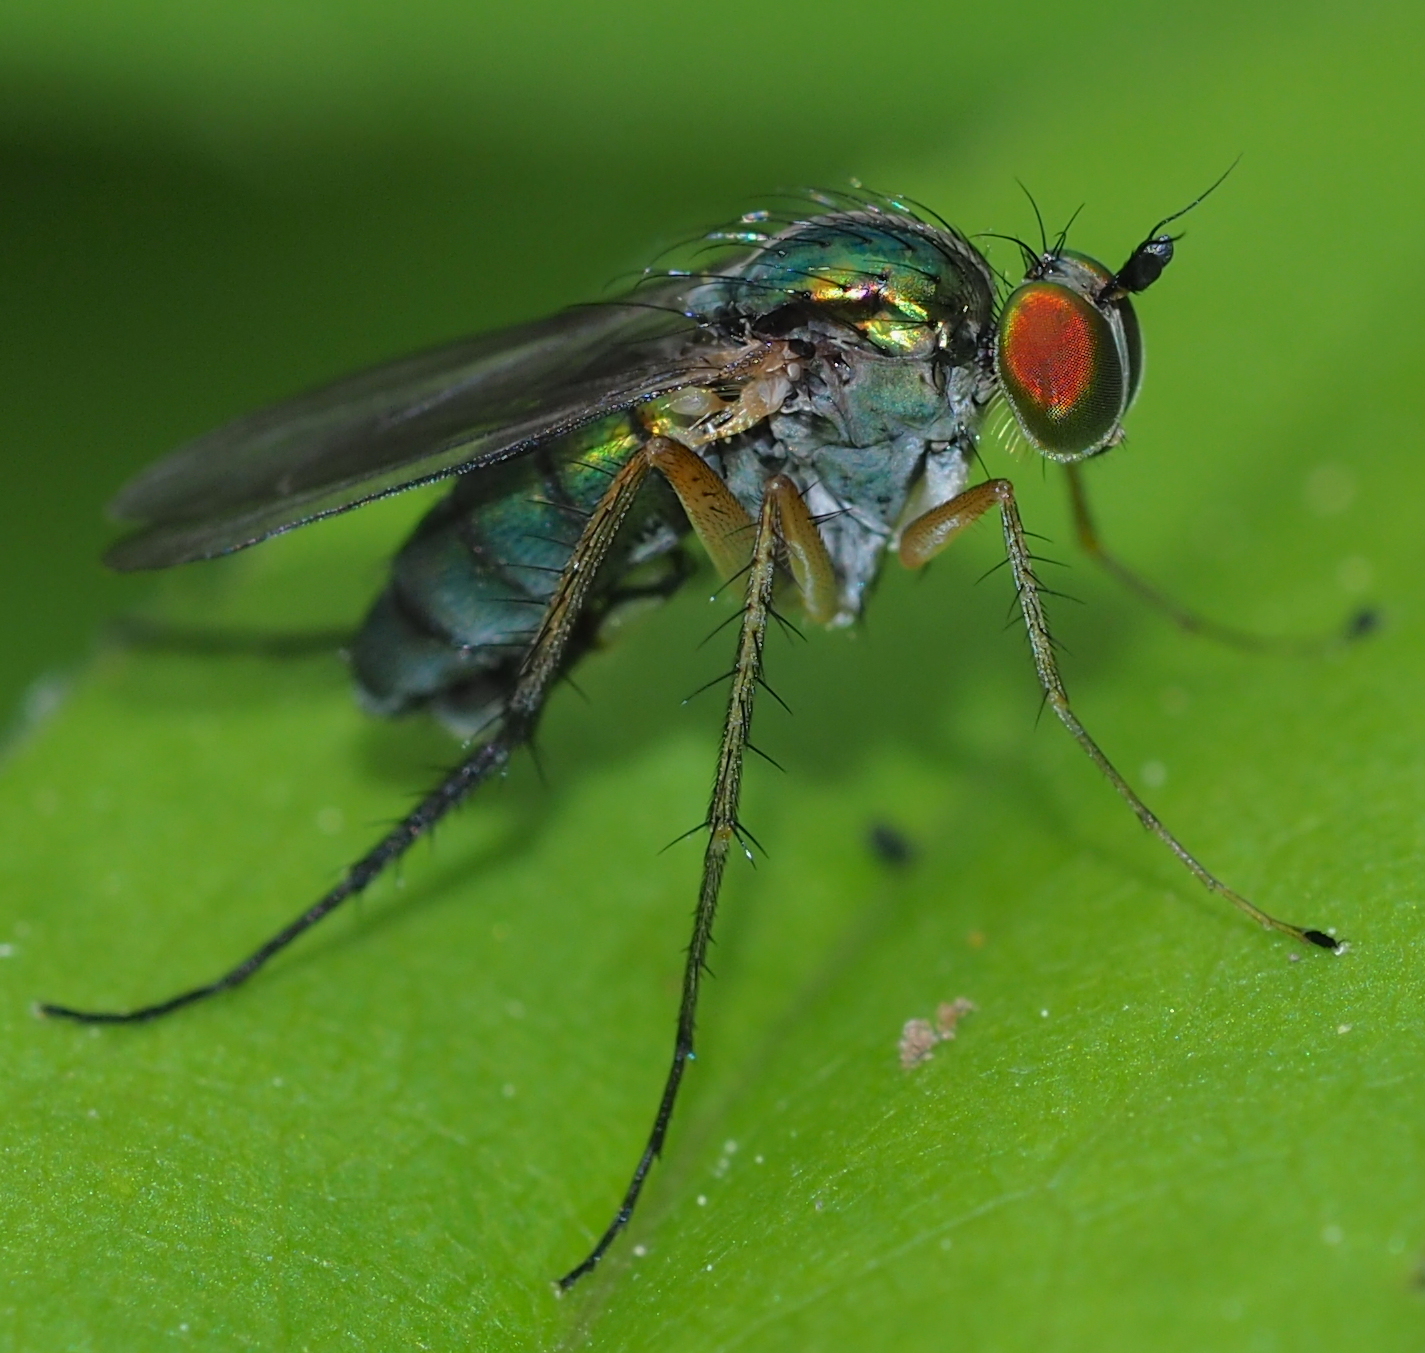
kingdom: Animalia
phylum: Arthropoda
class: Insecta
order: Diptera
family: Dolichopodidae
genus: Dolichopus
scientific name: Dolichopus claviger
